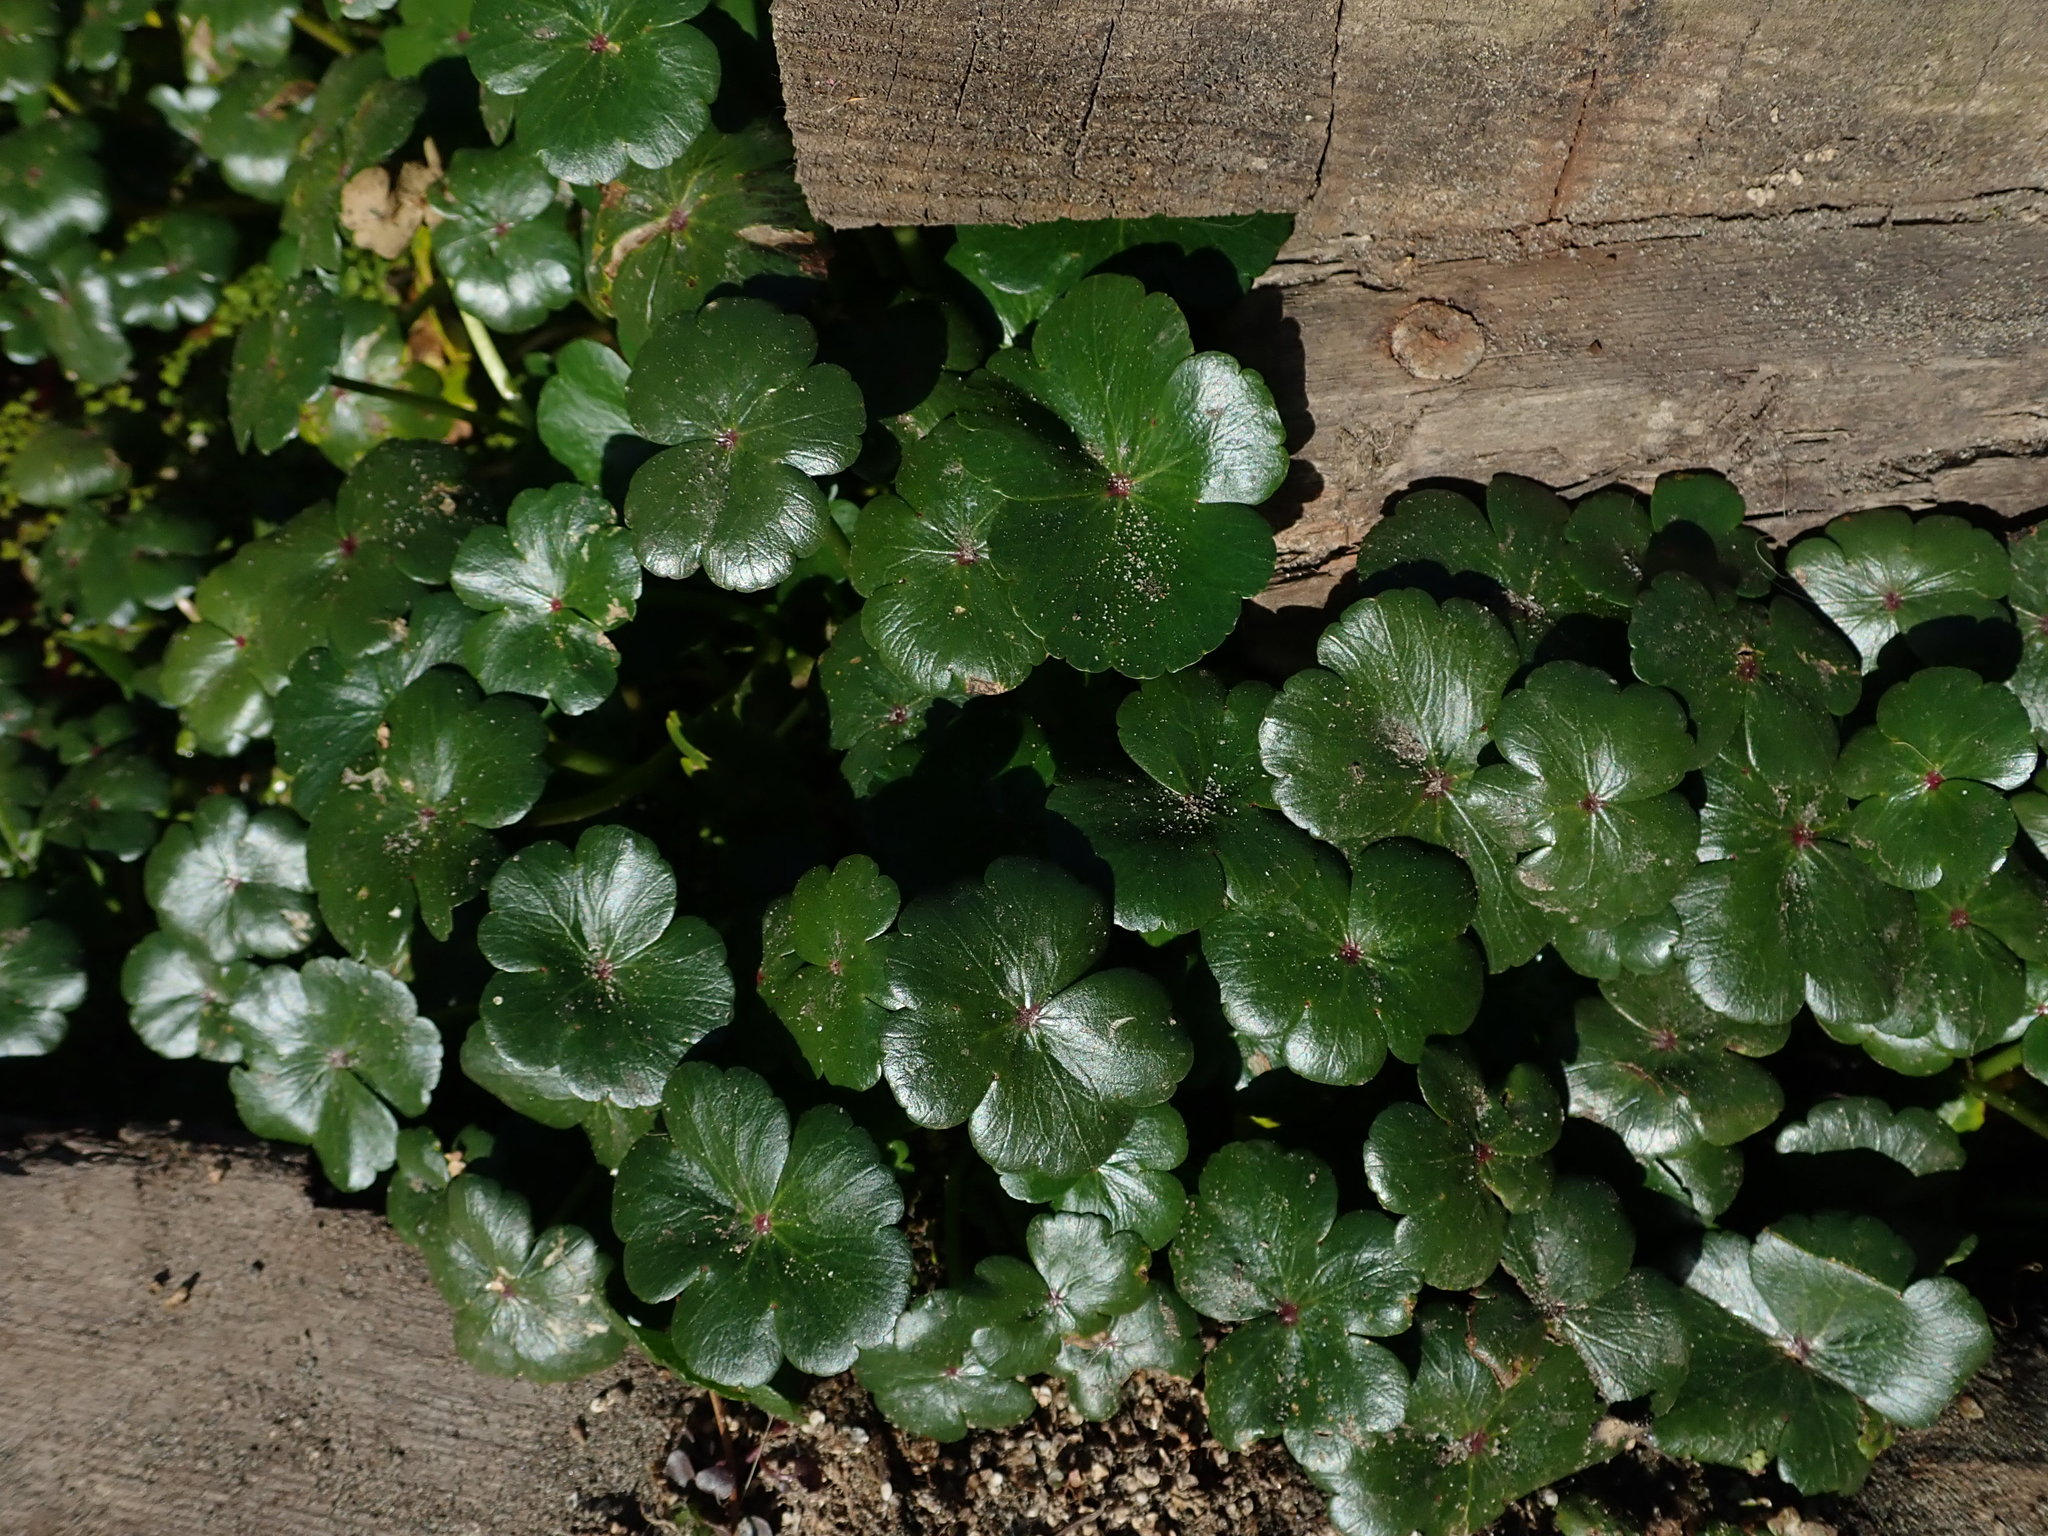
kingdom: Plantae
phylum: Tracheophyta
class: Magnoliopsida
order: Apiales
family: Araliaceae
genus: Hydrocotyle
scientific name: Hydrocotyle ranunculoides
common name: Floating pennywort
